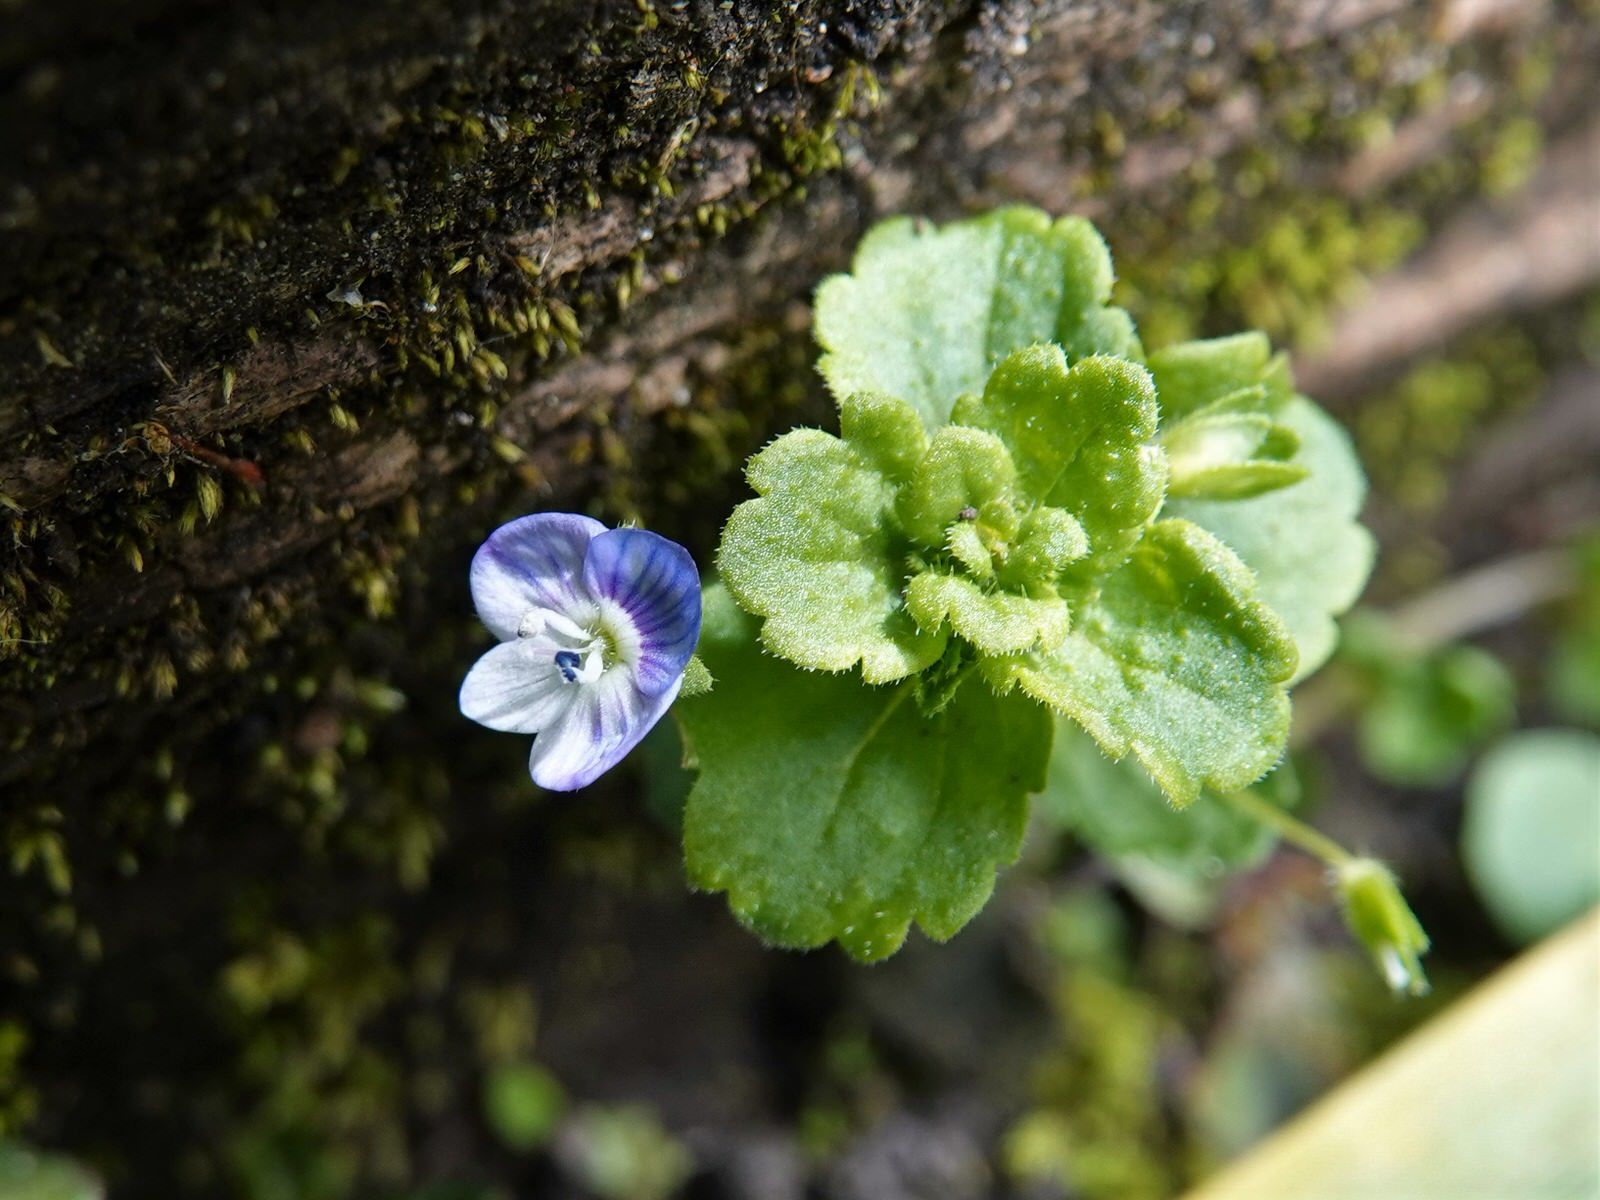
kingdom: Plantae
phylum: Tracheophyta
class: Magnoliopsida
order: Lamiales
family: Plantaginaceae
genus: Veronica
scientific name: Veronica persica
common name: Common field-speedwell
